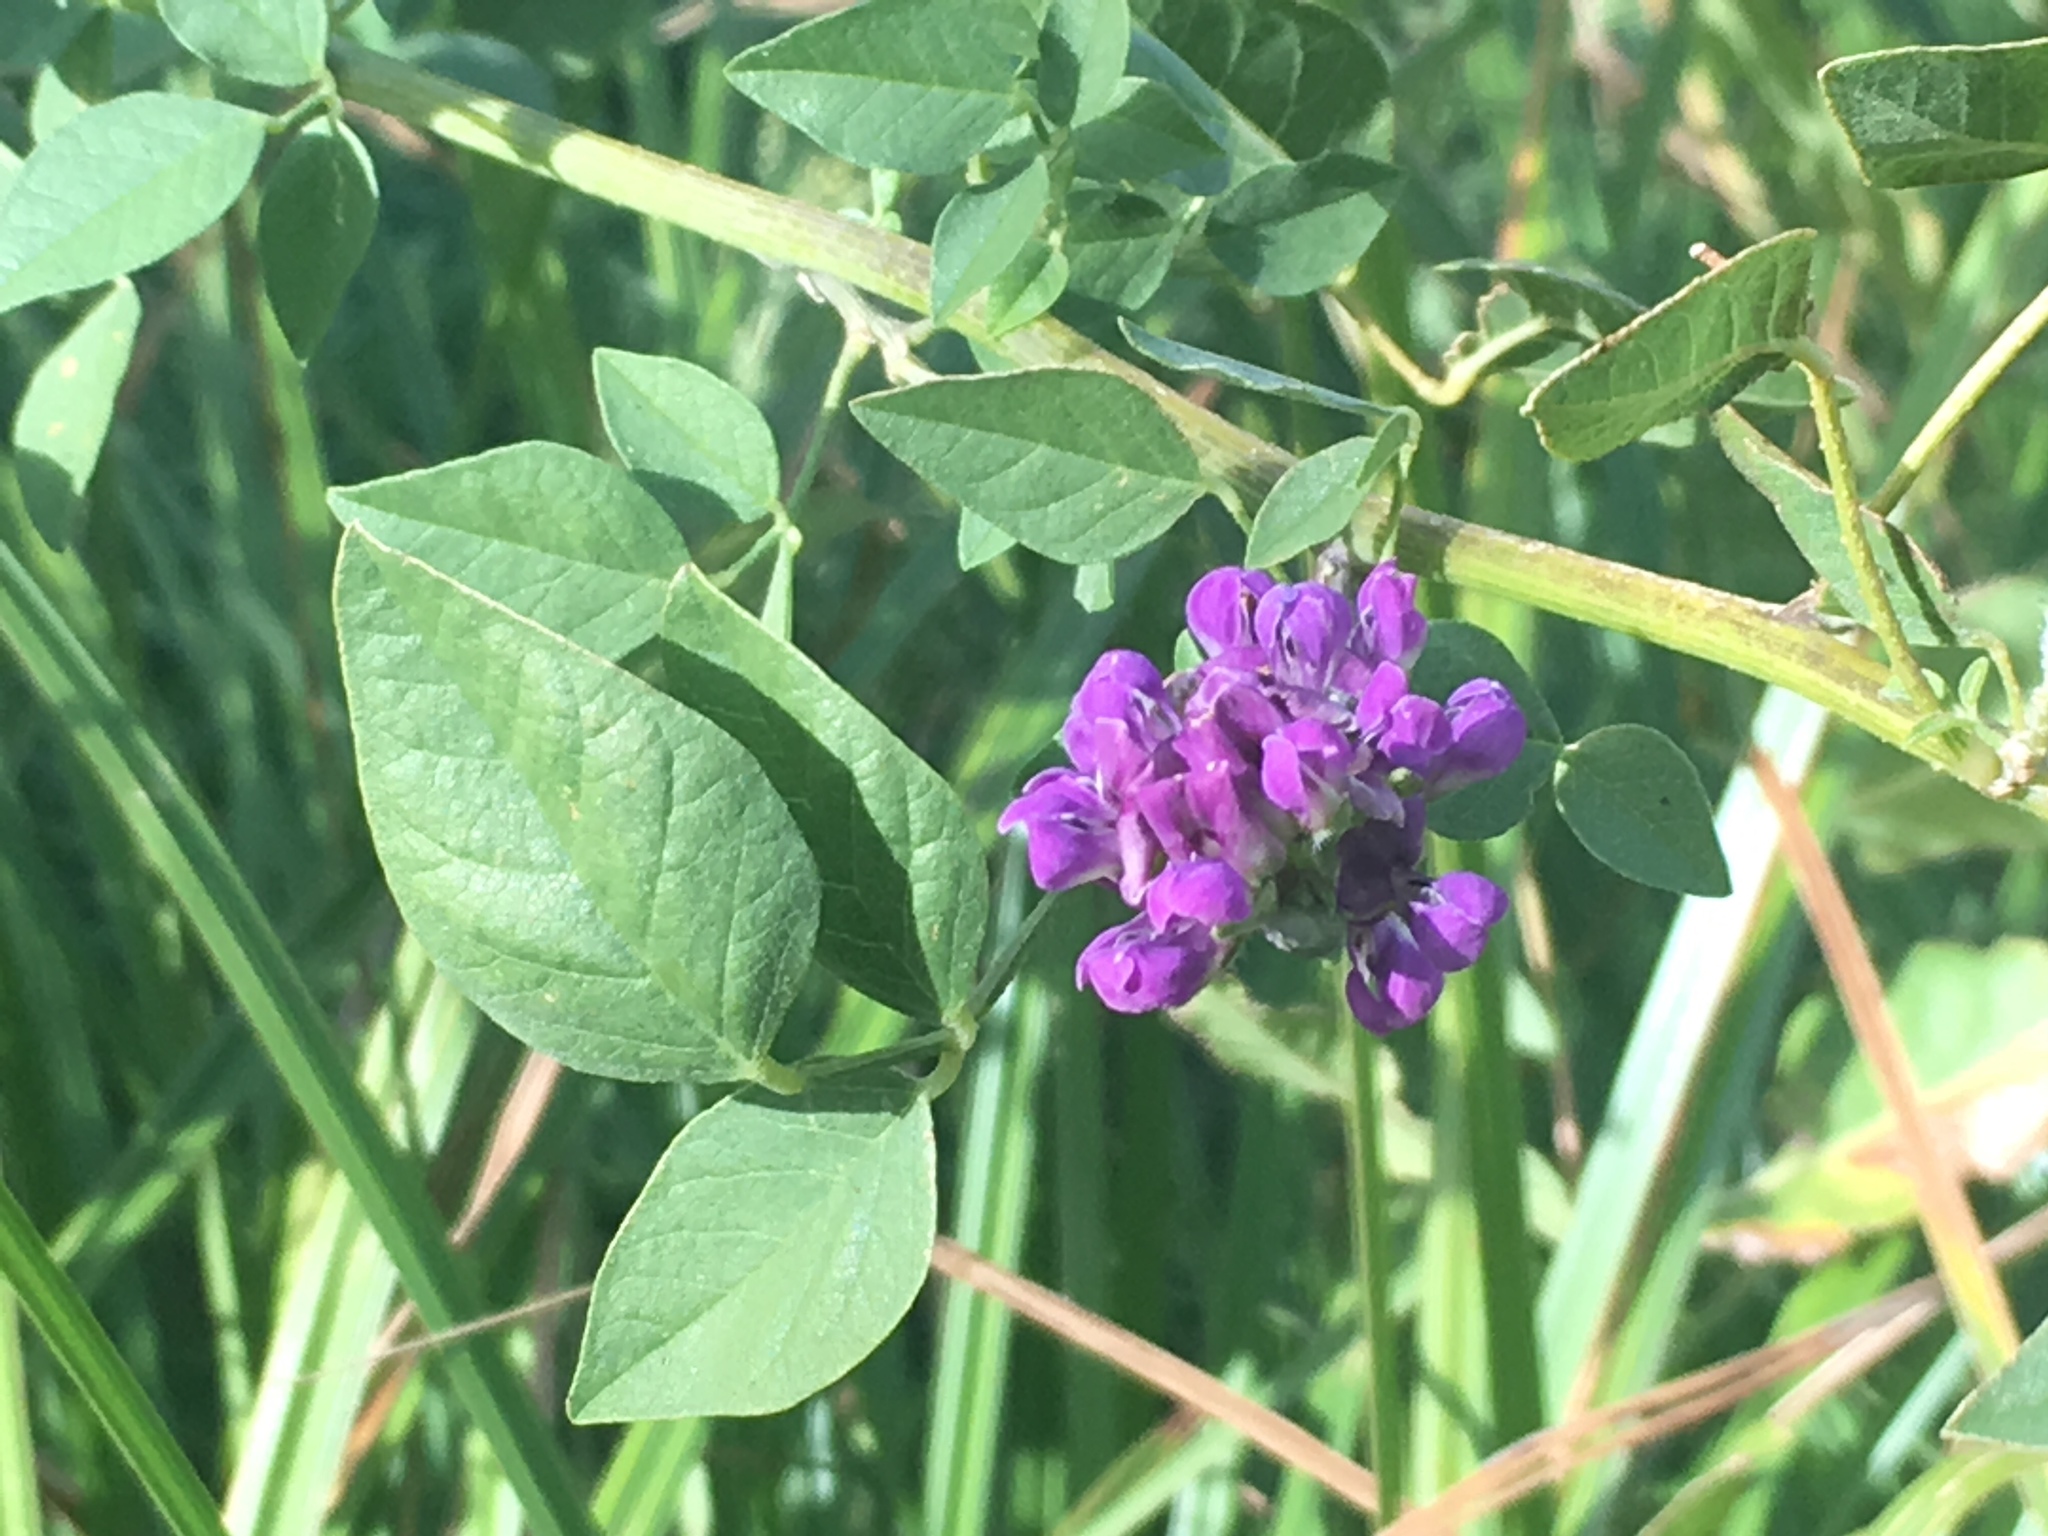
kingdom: Plantae
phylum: Tracheophyta
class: Magnoliopsida
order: Fabales
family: Fabaceae
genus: Hoita
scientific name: Hoita macrostachya
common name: Leatherroot
